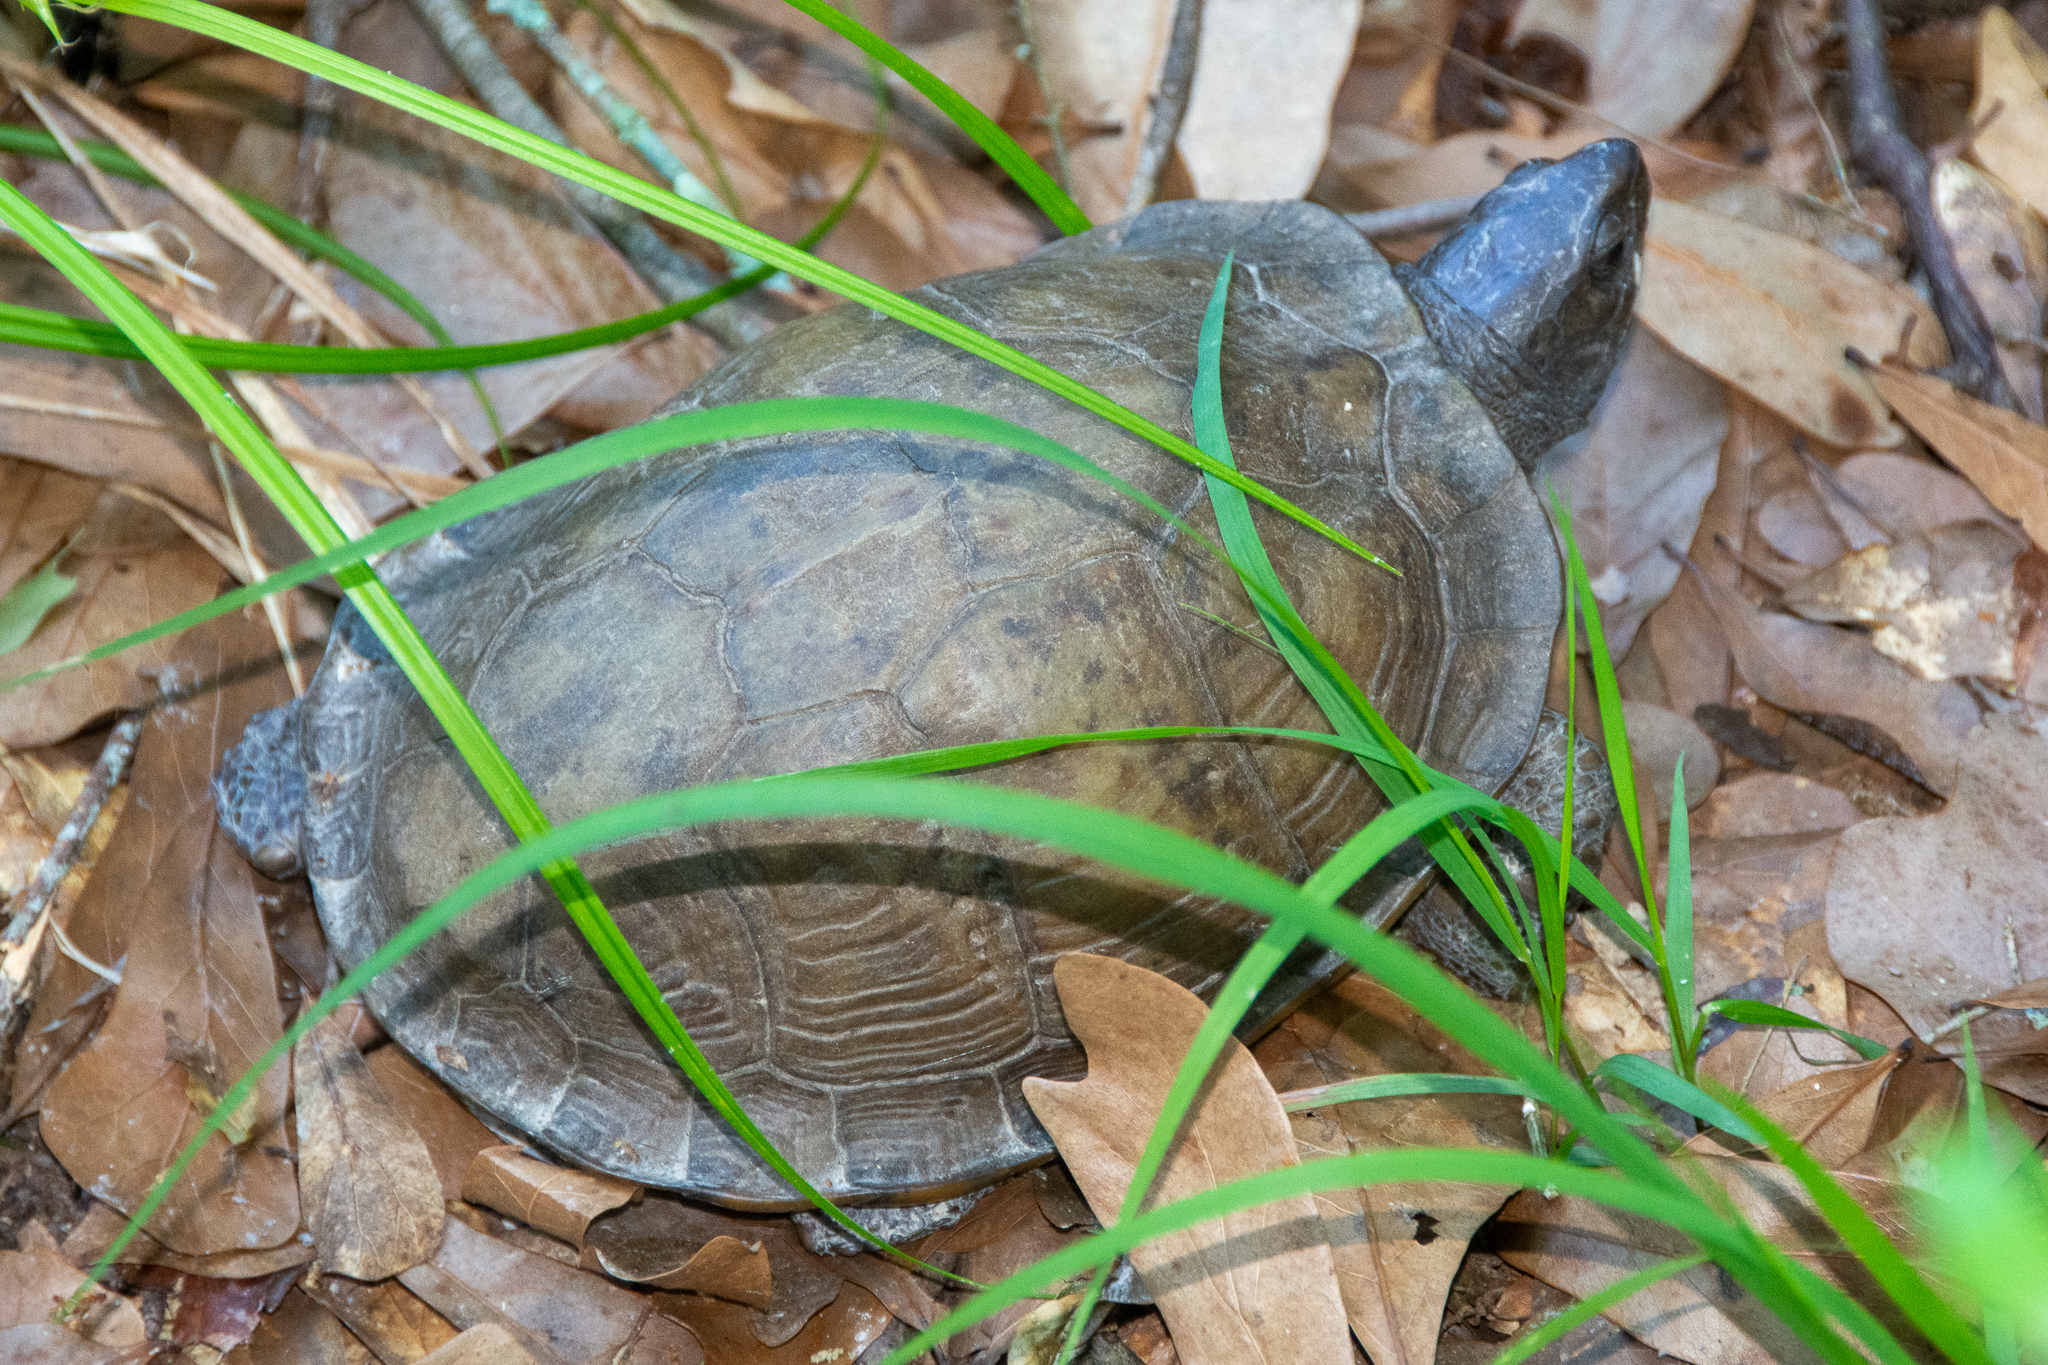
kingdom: Animalia
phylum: Chordata
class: Testudines
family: Emydidae
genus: Terrapene
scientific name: Terrapene carolina
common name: Common box turtle
